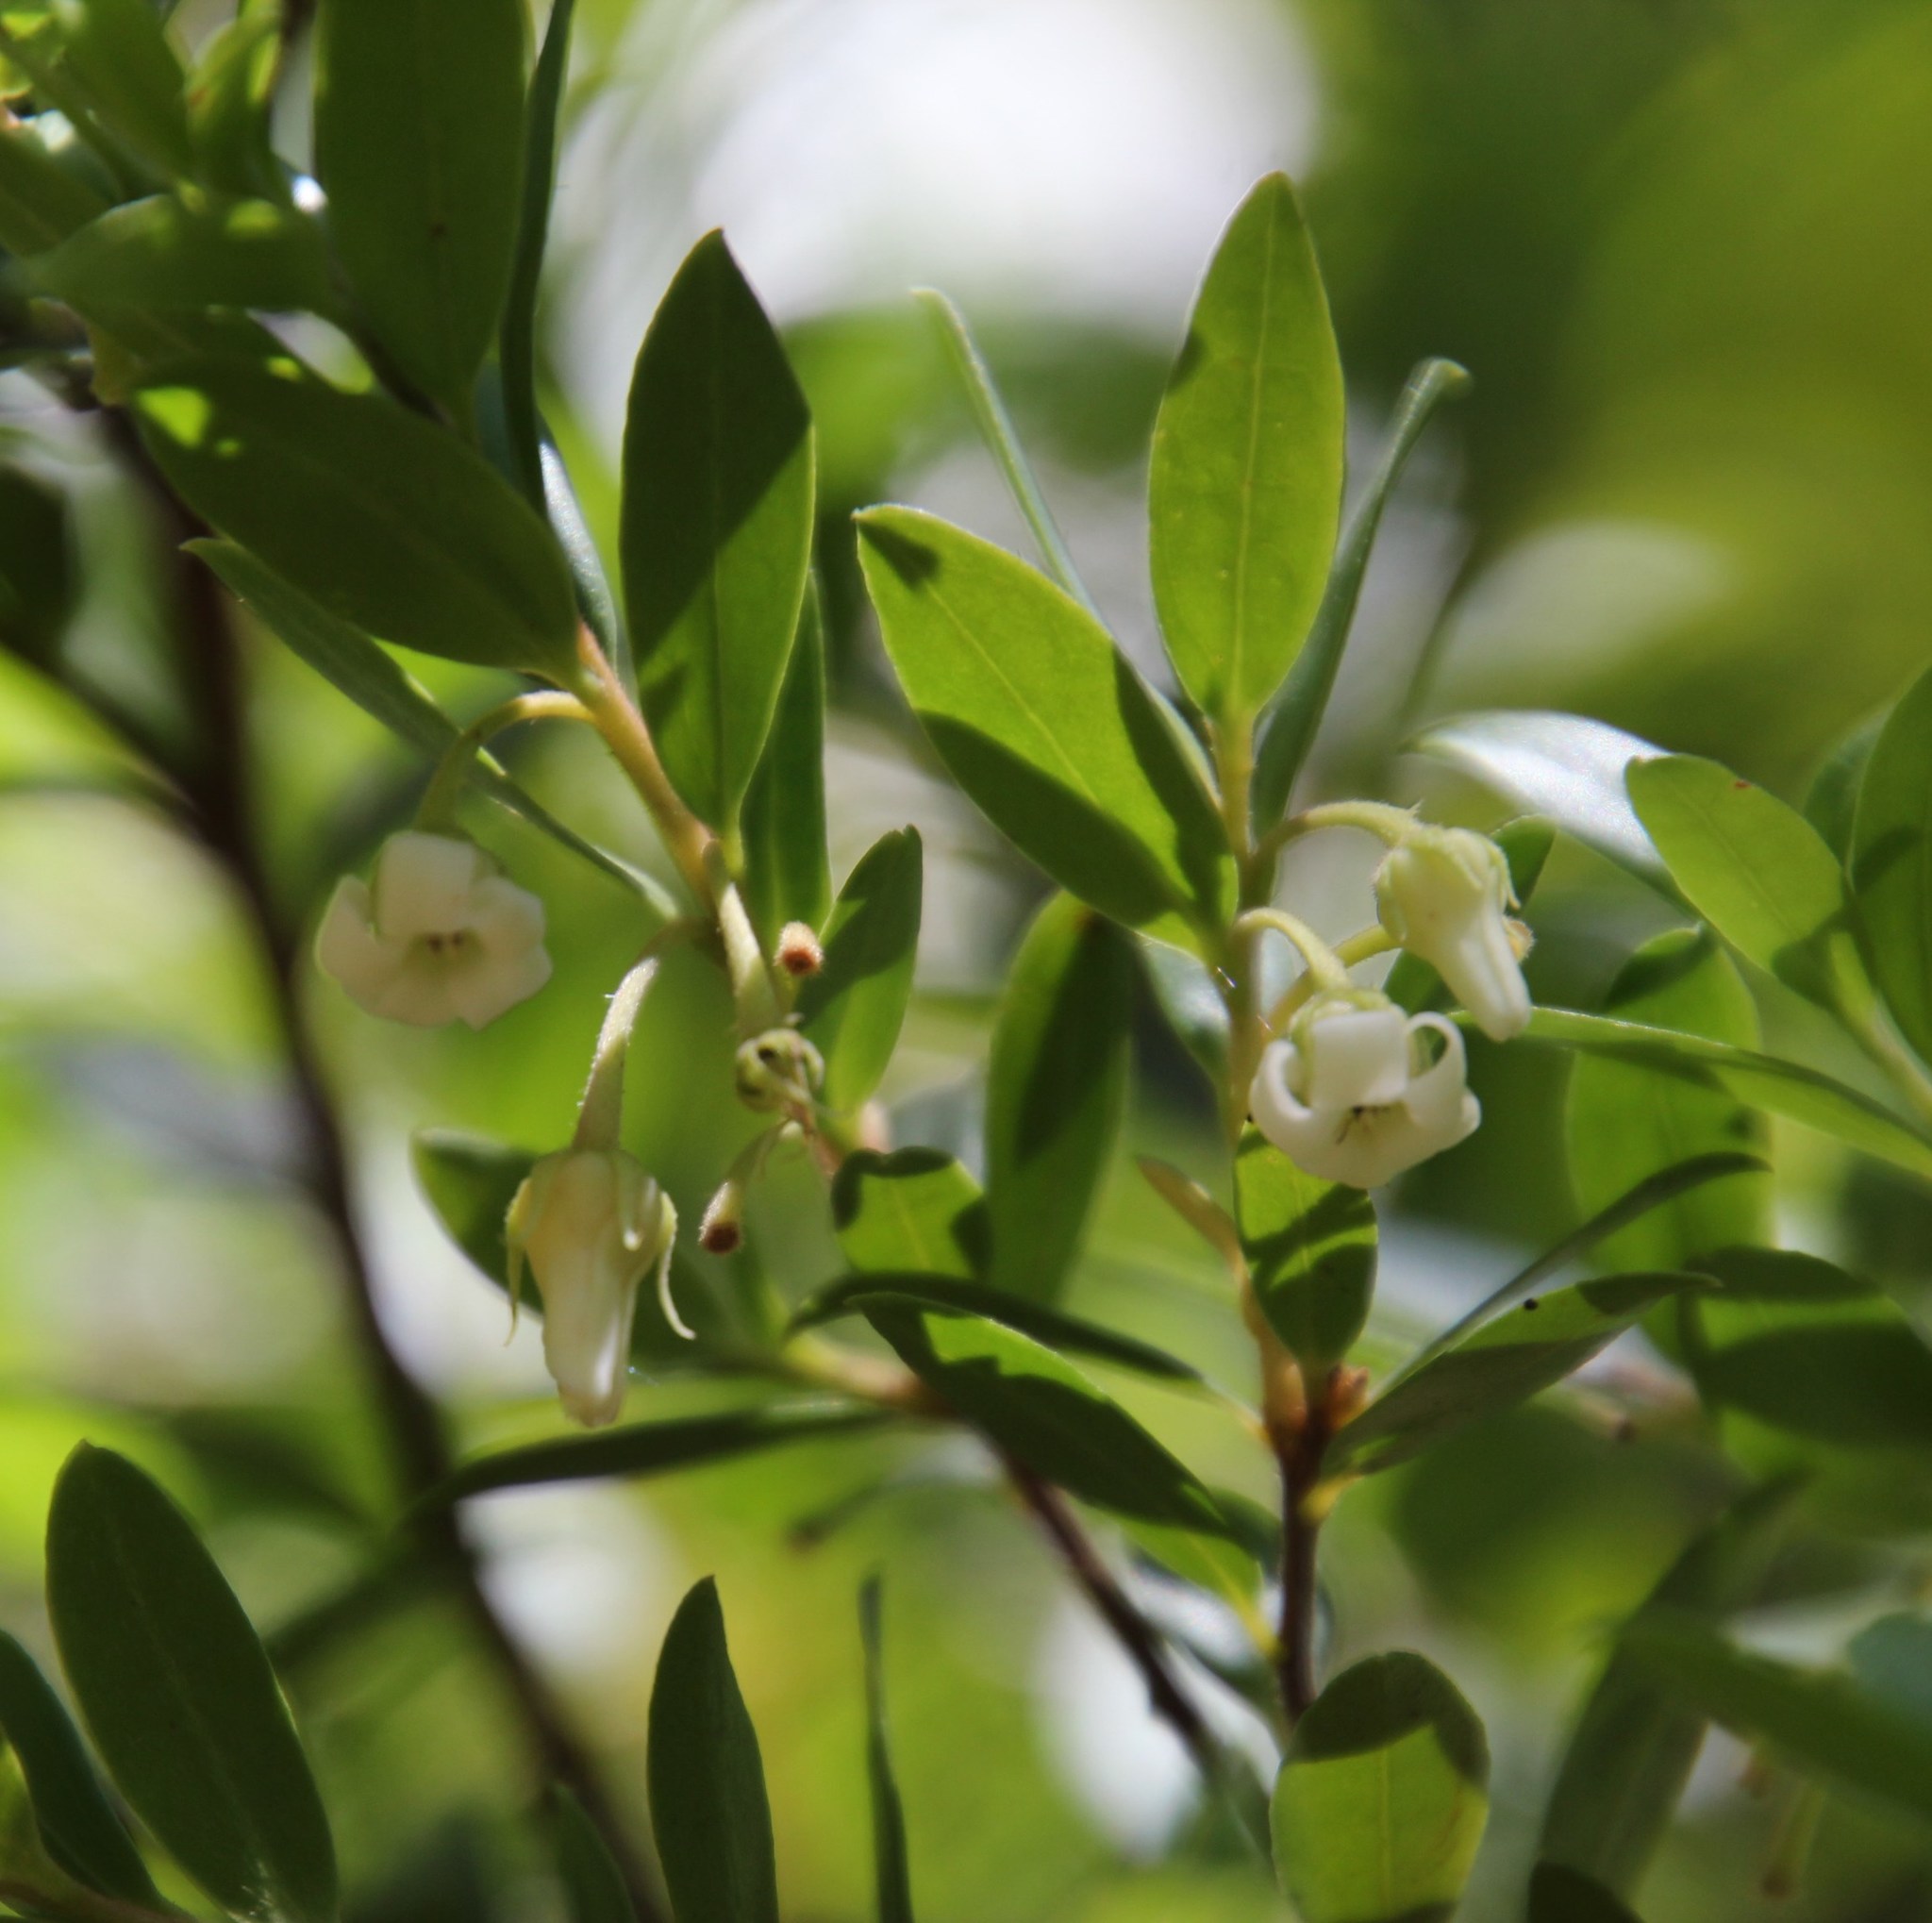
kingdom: Plantae
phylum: Tracheophyta
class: Magnoliopsida
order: Ericales
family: Ebenaceae
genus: Diospyros
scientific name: Diospyros glabra
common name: Fynbos star apple
